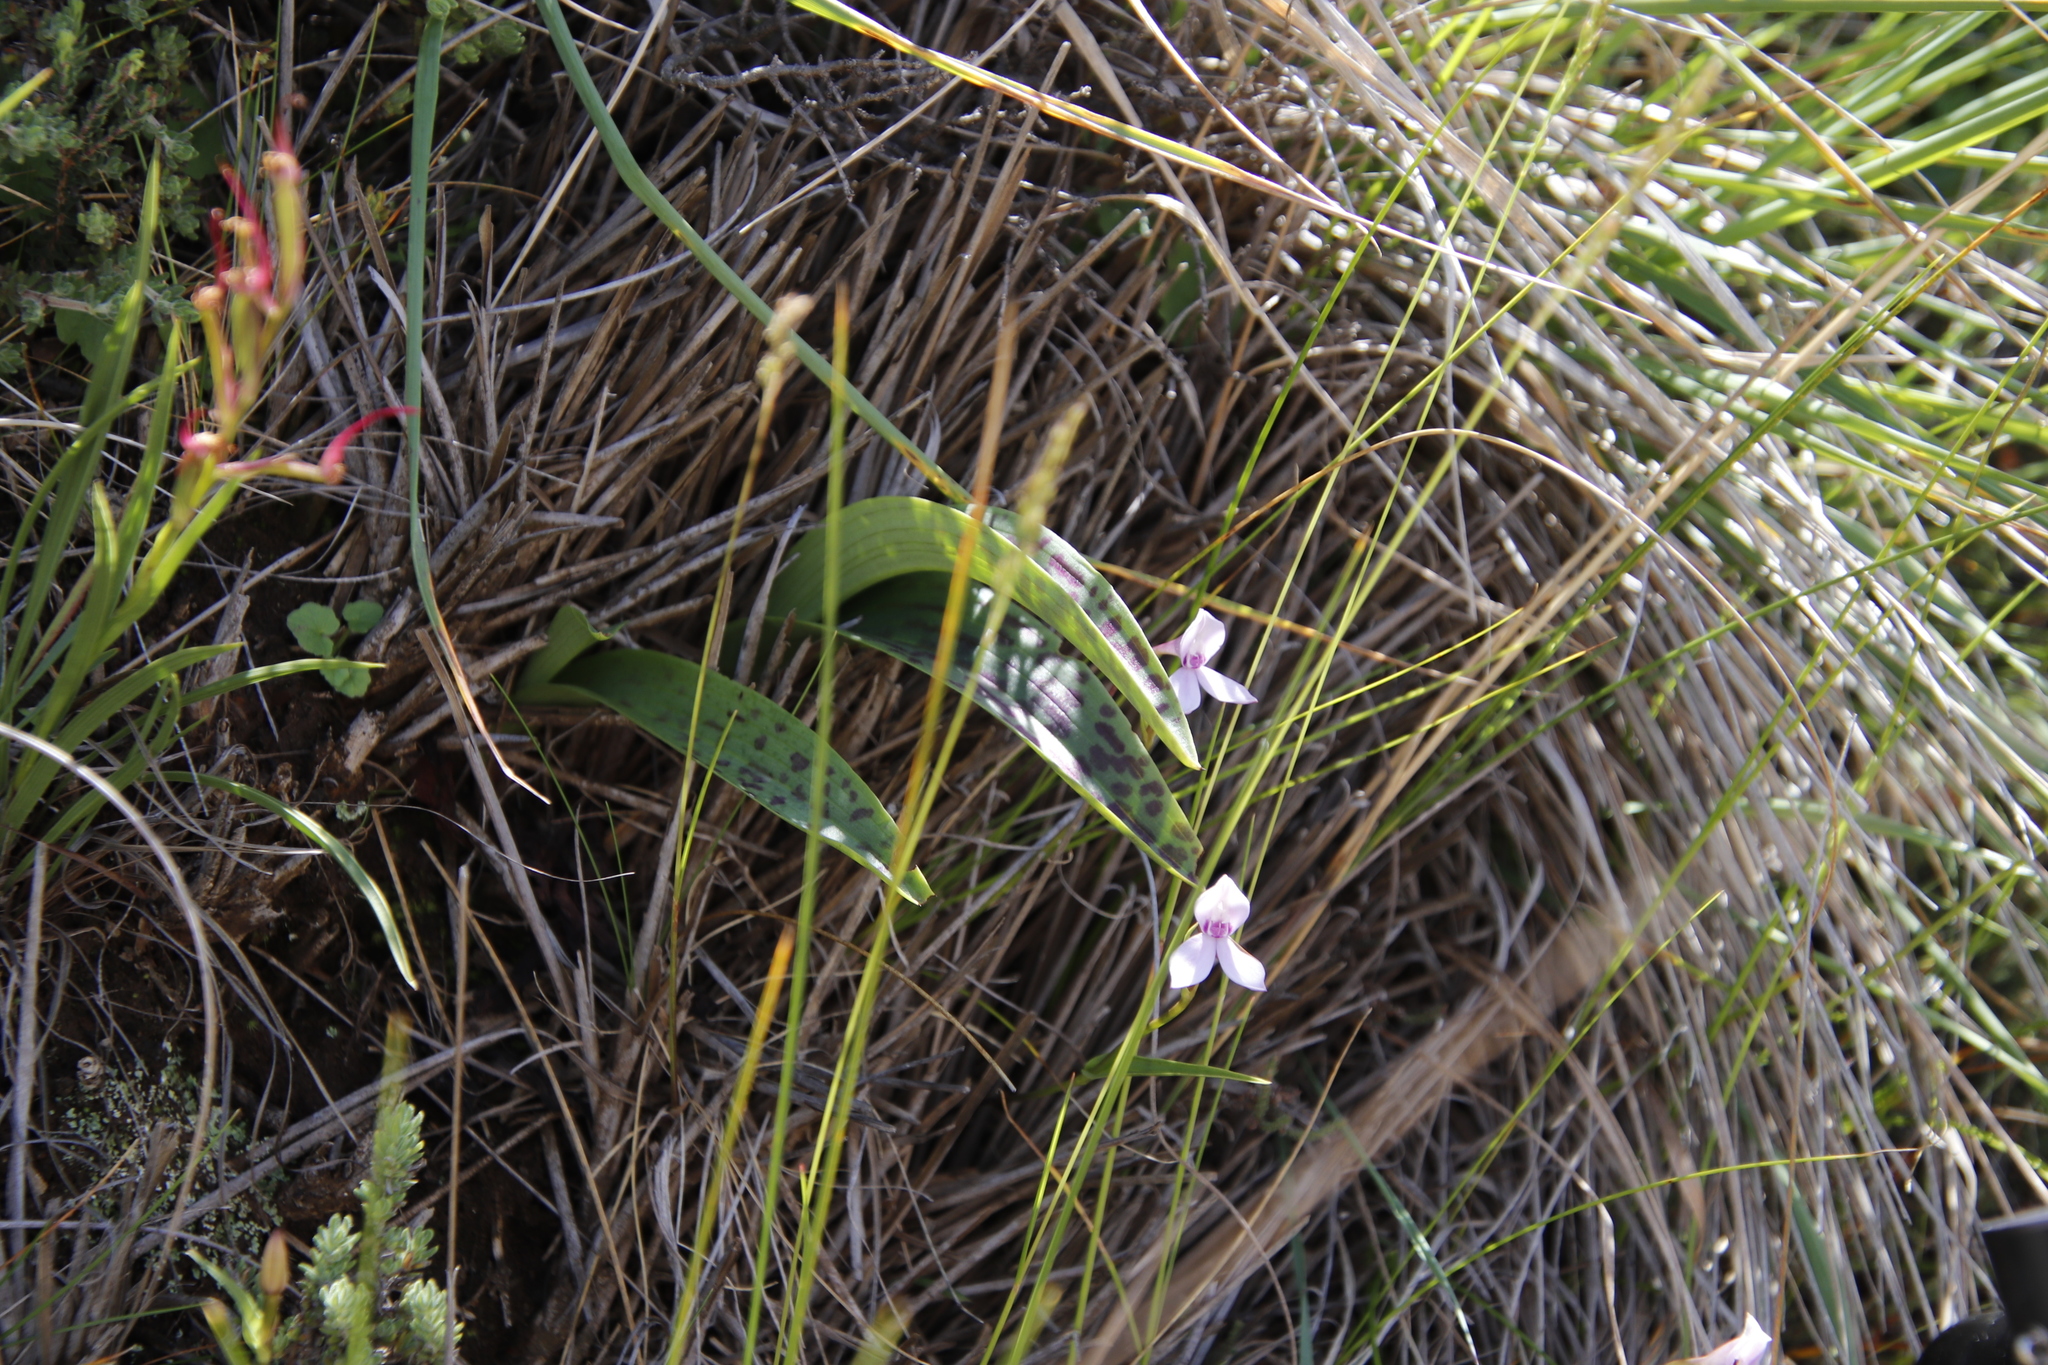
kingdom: Plantae
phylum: Tracheophyta
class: Liliopsida
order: Asparagales
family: Orchidaceae
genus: Brownleea
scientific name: Brownleea macroceras
